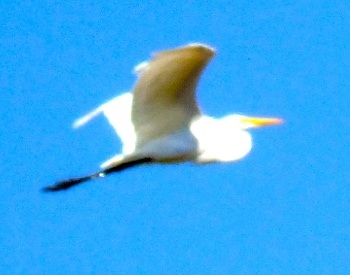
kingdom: Animalia
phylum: Chordata
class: Aves
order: Pelecaniformes
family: Ardeidae
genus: Ardea
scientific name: Ardea alba
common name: Great egret
